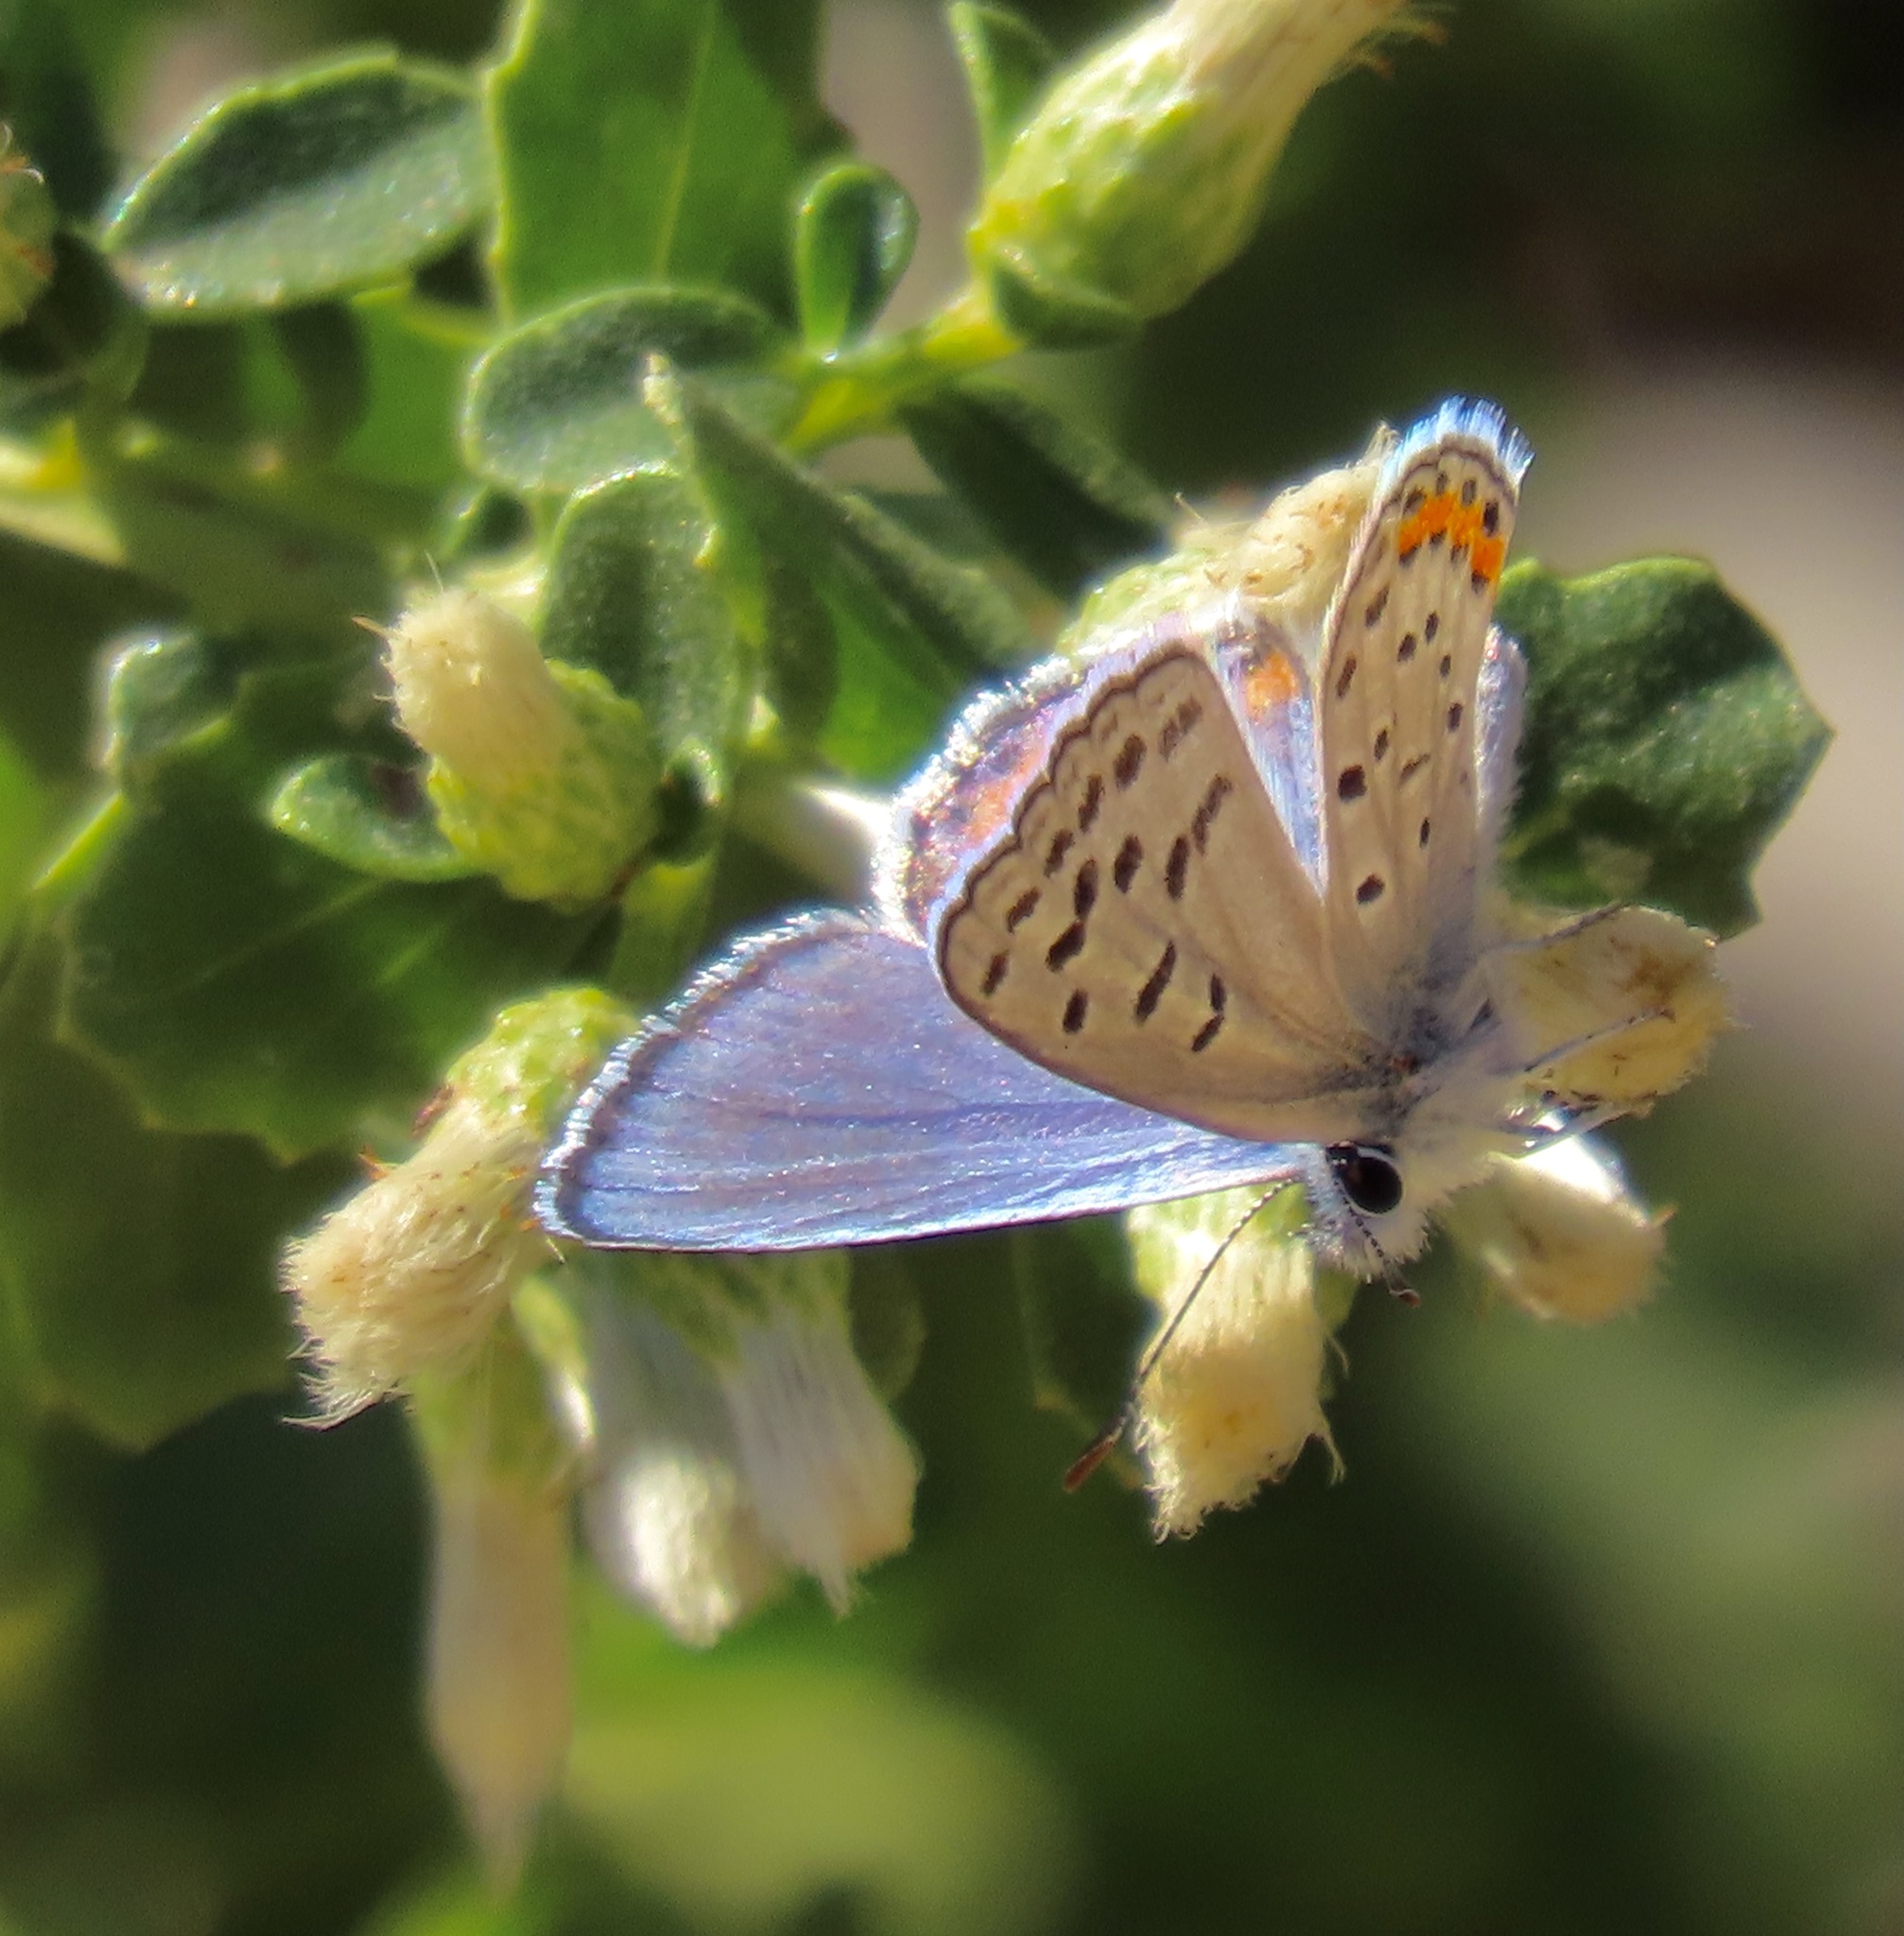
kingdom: Animalia
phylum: Arthropoda
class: Insecta
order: Lepidoptera
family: Lycaenidae
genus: Icaricia
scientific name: Icaricia acmon
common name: Acmon blue
